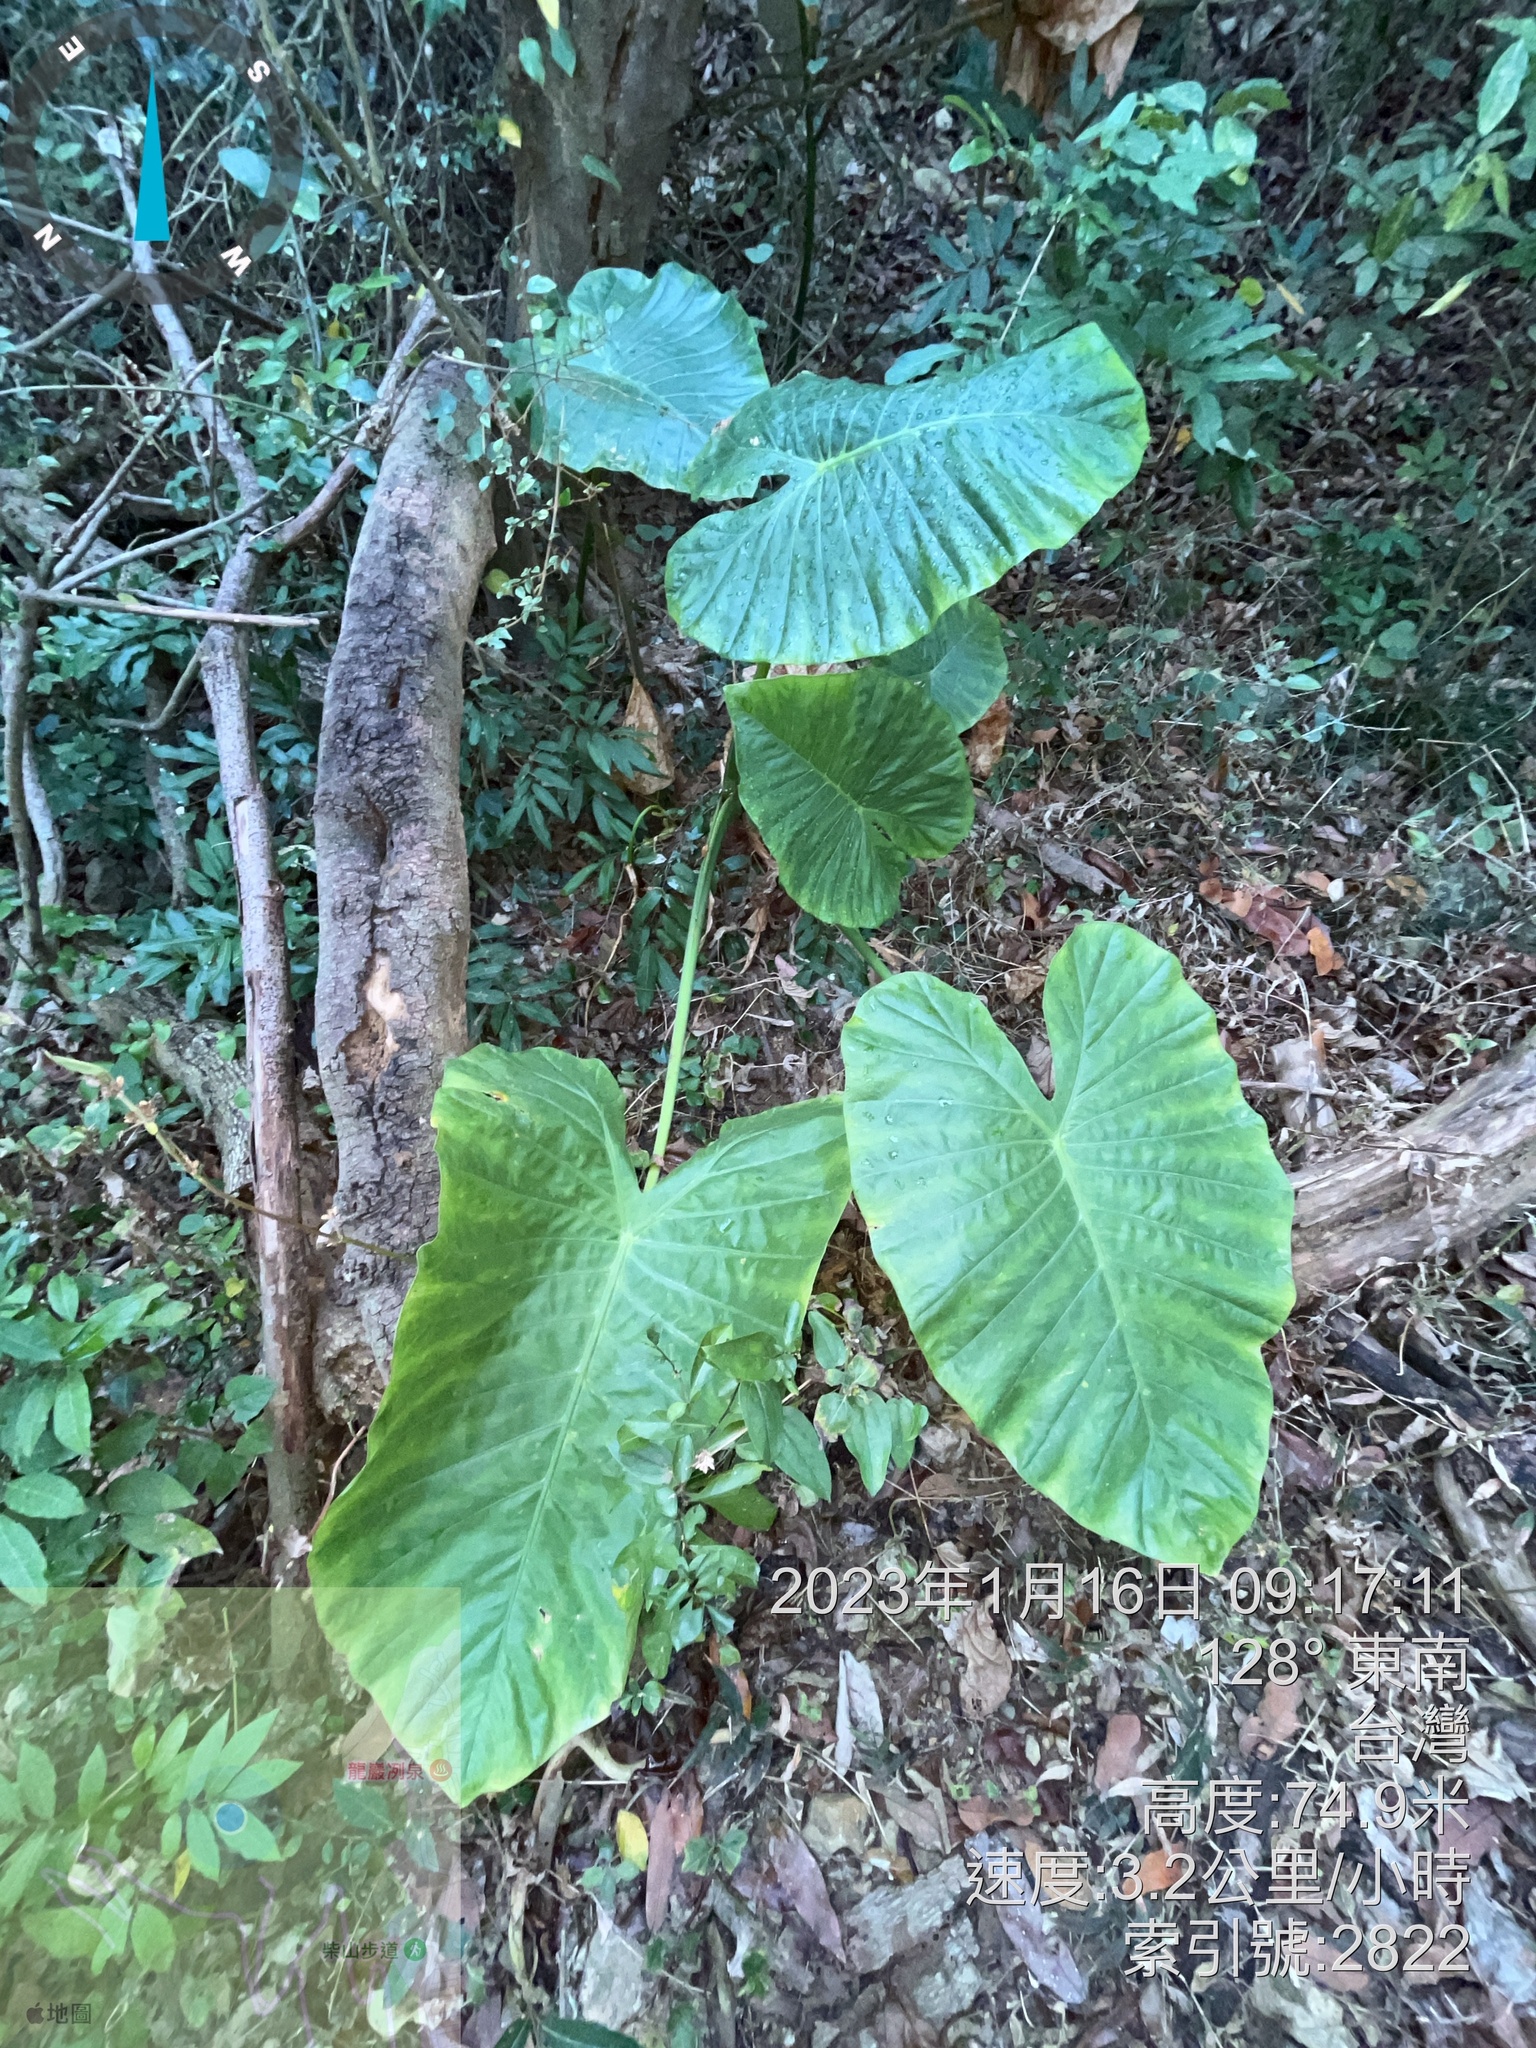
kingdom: Plantae
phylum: Tracheophyta
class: Liliopsida
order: Alismatales
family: Araceae
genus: Alocasia
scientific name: Alocasia odora
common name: Asian taro
